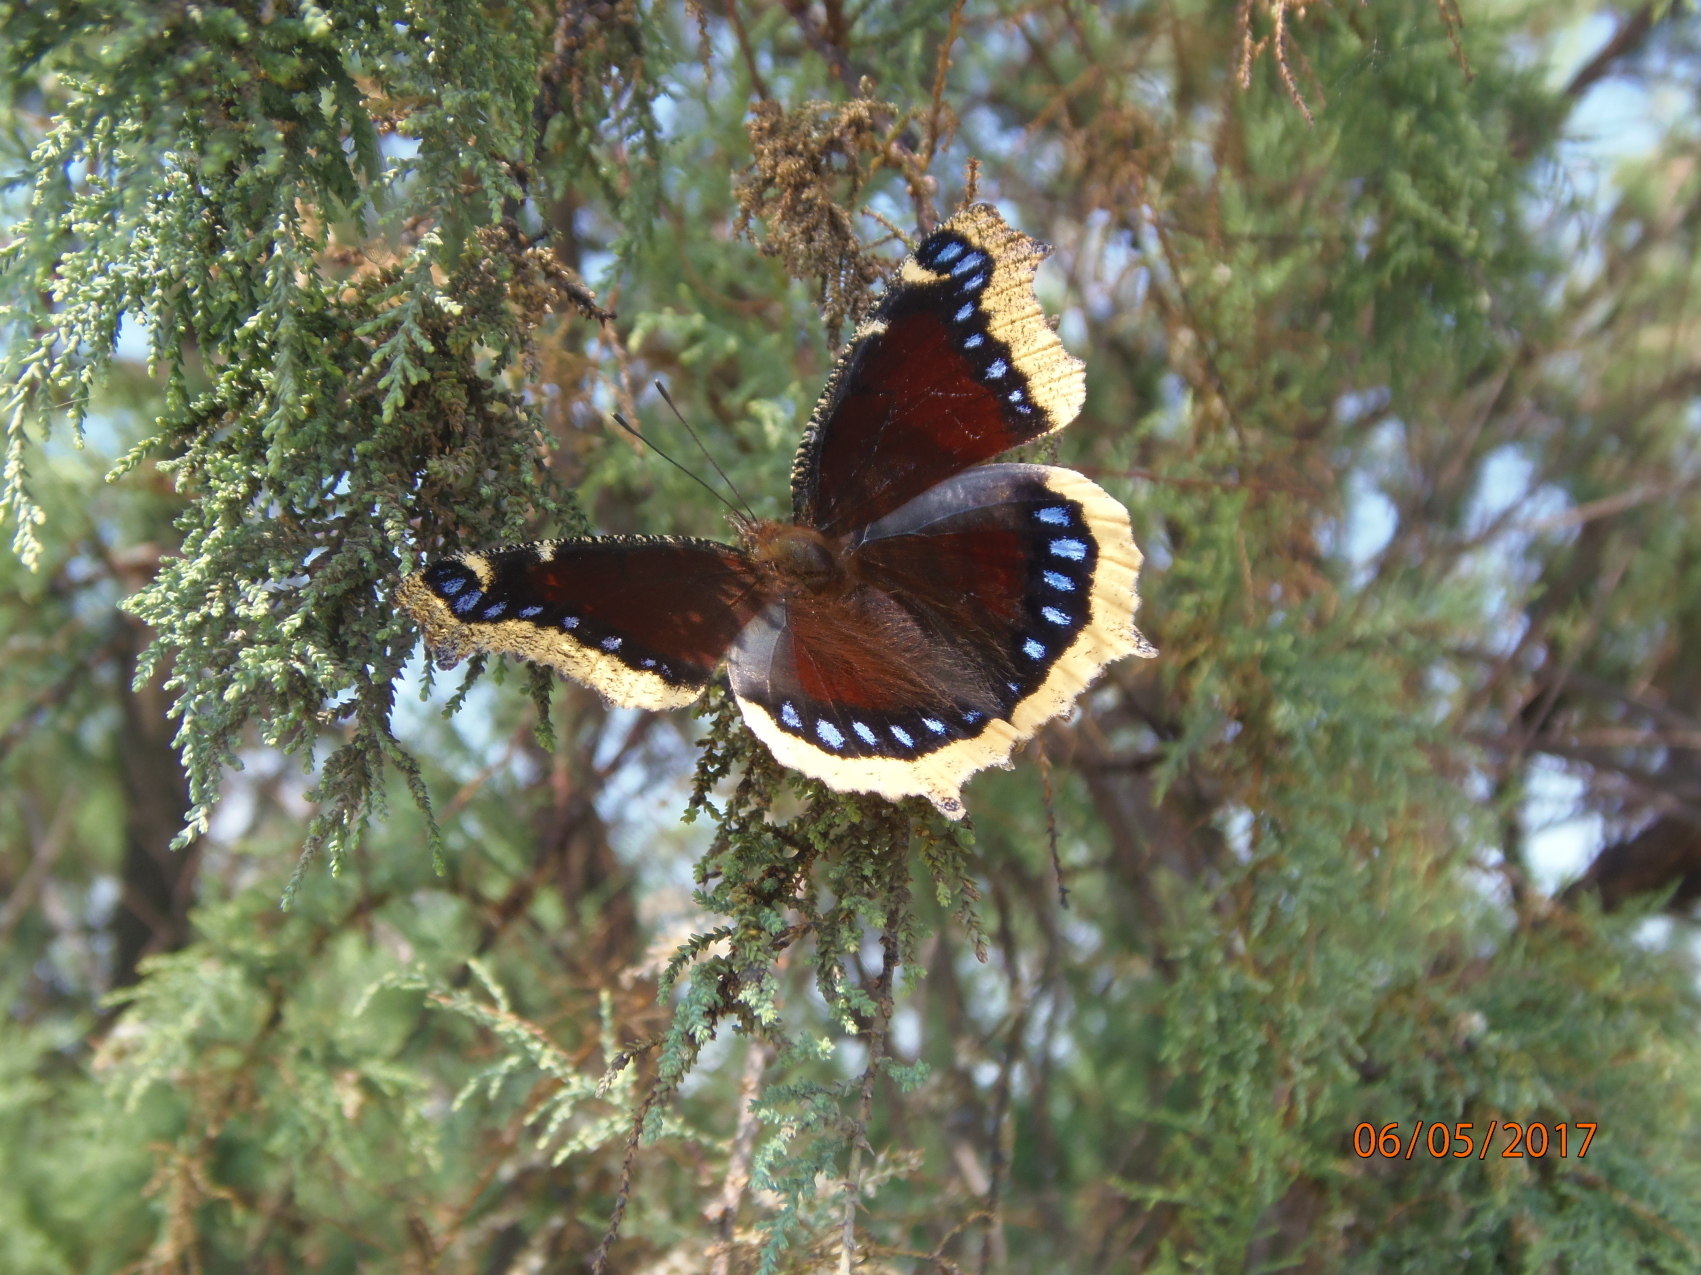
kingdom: Animalia
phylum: Arthropoda
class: Insecta
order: Lepidoptera
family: Nymphalidae
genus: Nymphalis
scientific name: Nymphalis antiopa
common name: Camberwell beauty
